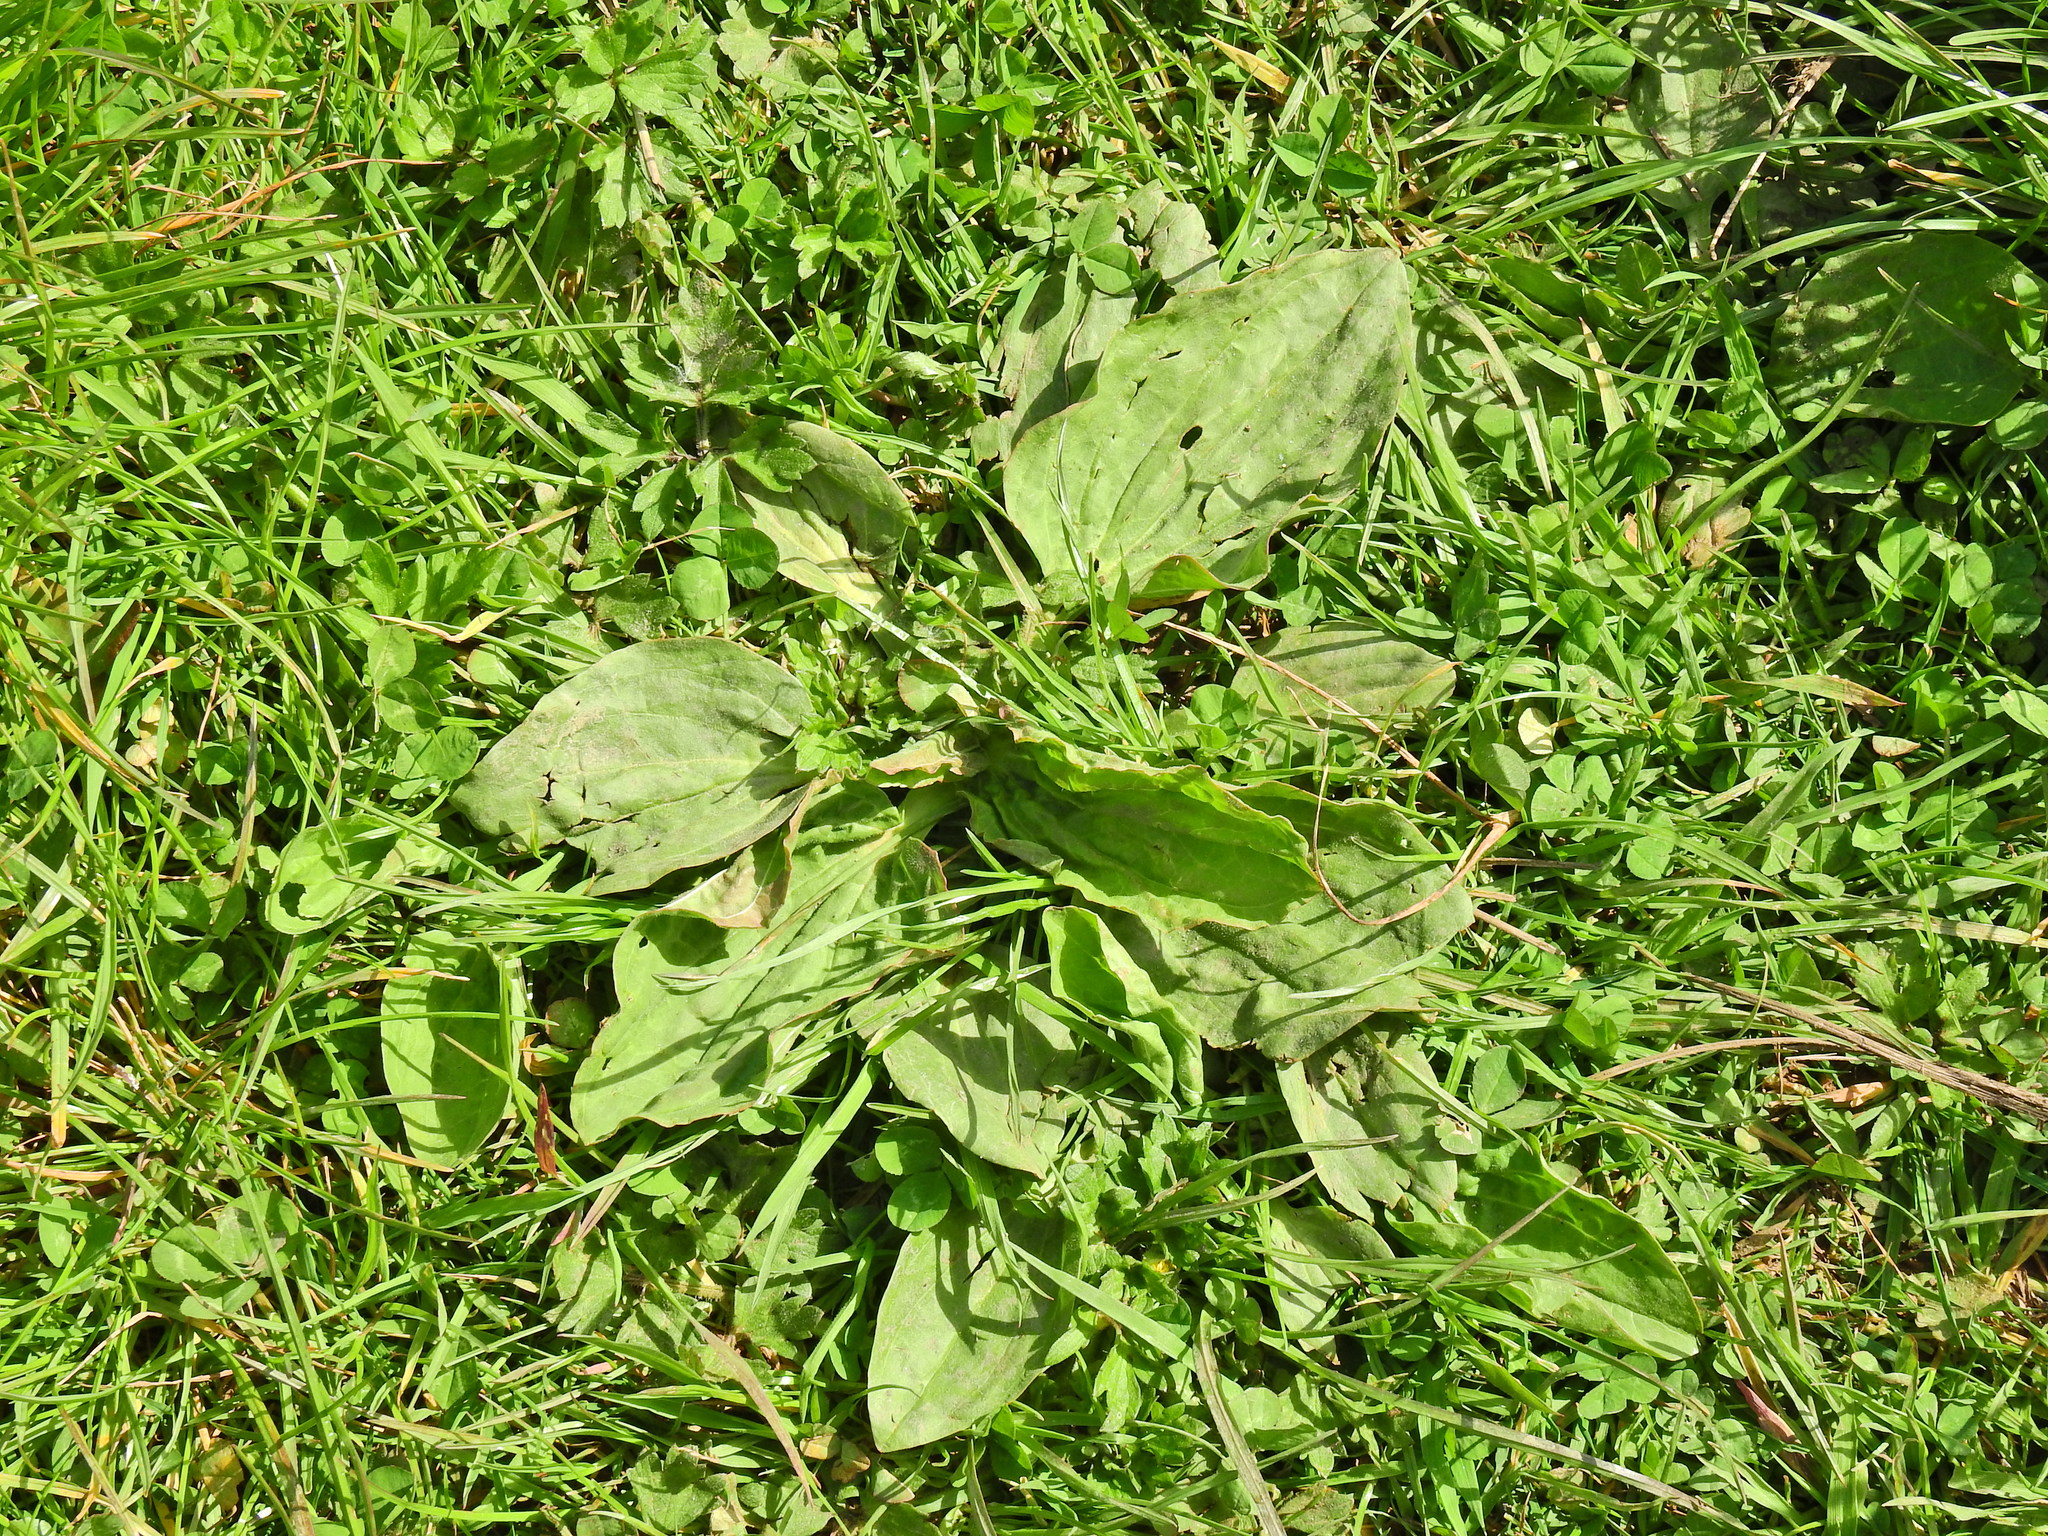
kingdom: Plantae
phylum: Tracheophyta
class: Magnoliopsida
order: Lamiales
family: Plantaginaceae
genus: Plantago
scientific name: Plantago major
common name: Common plantain
